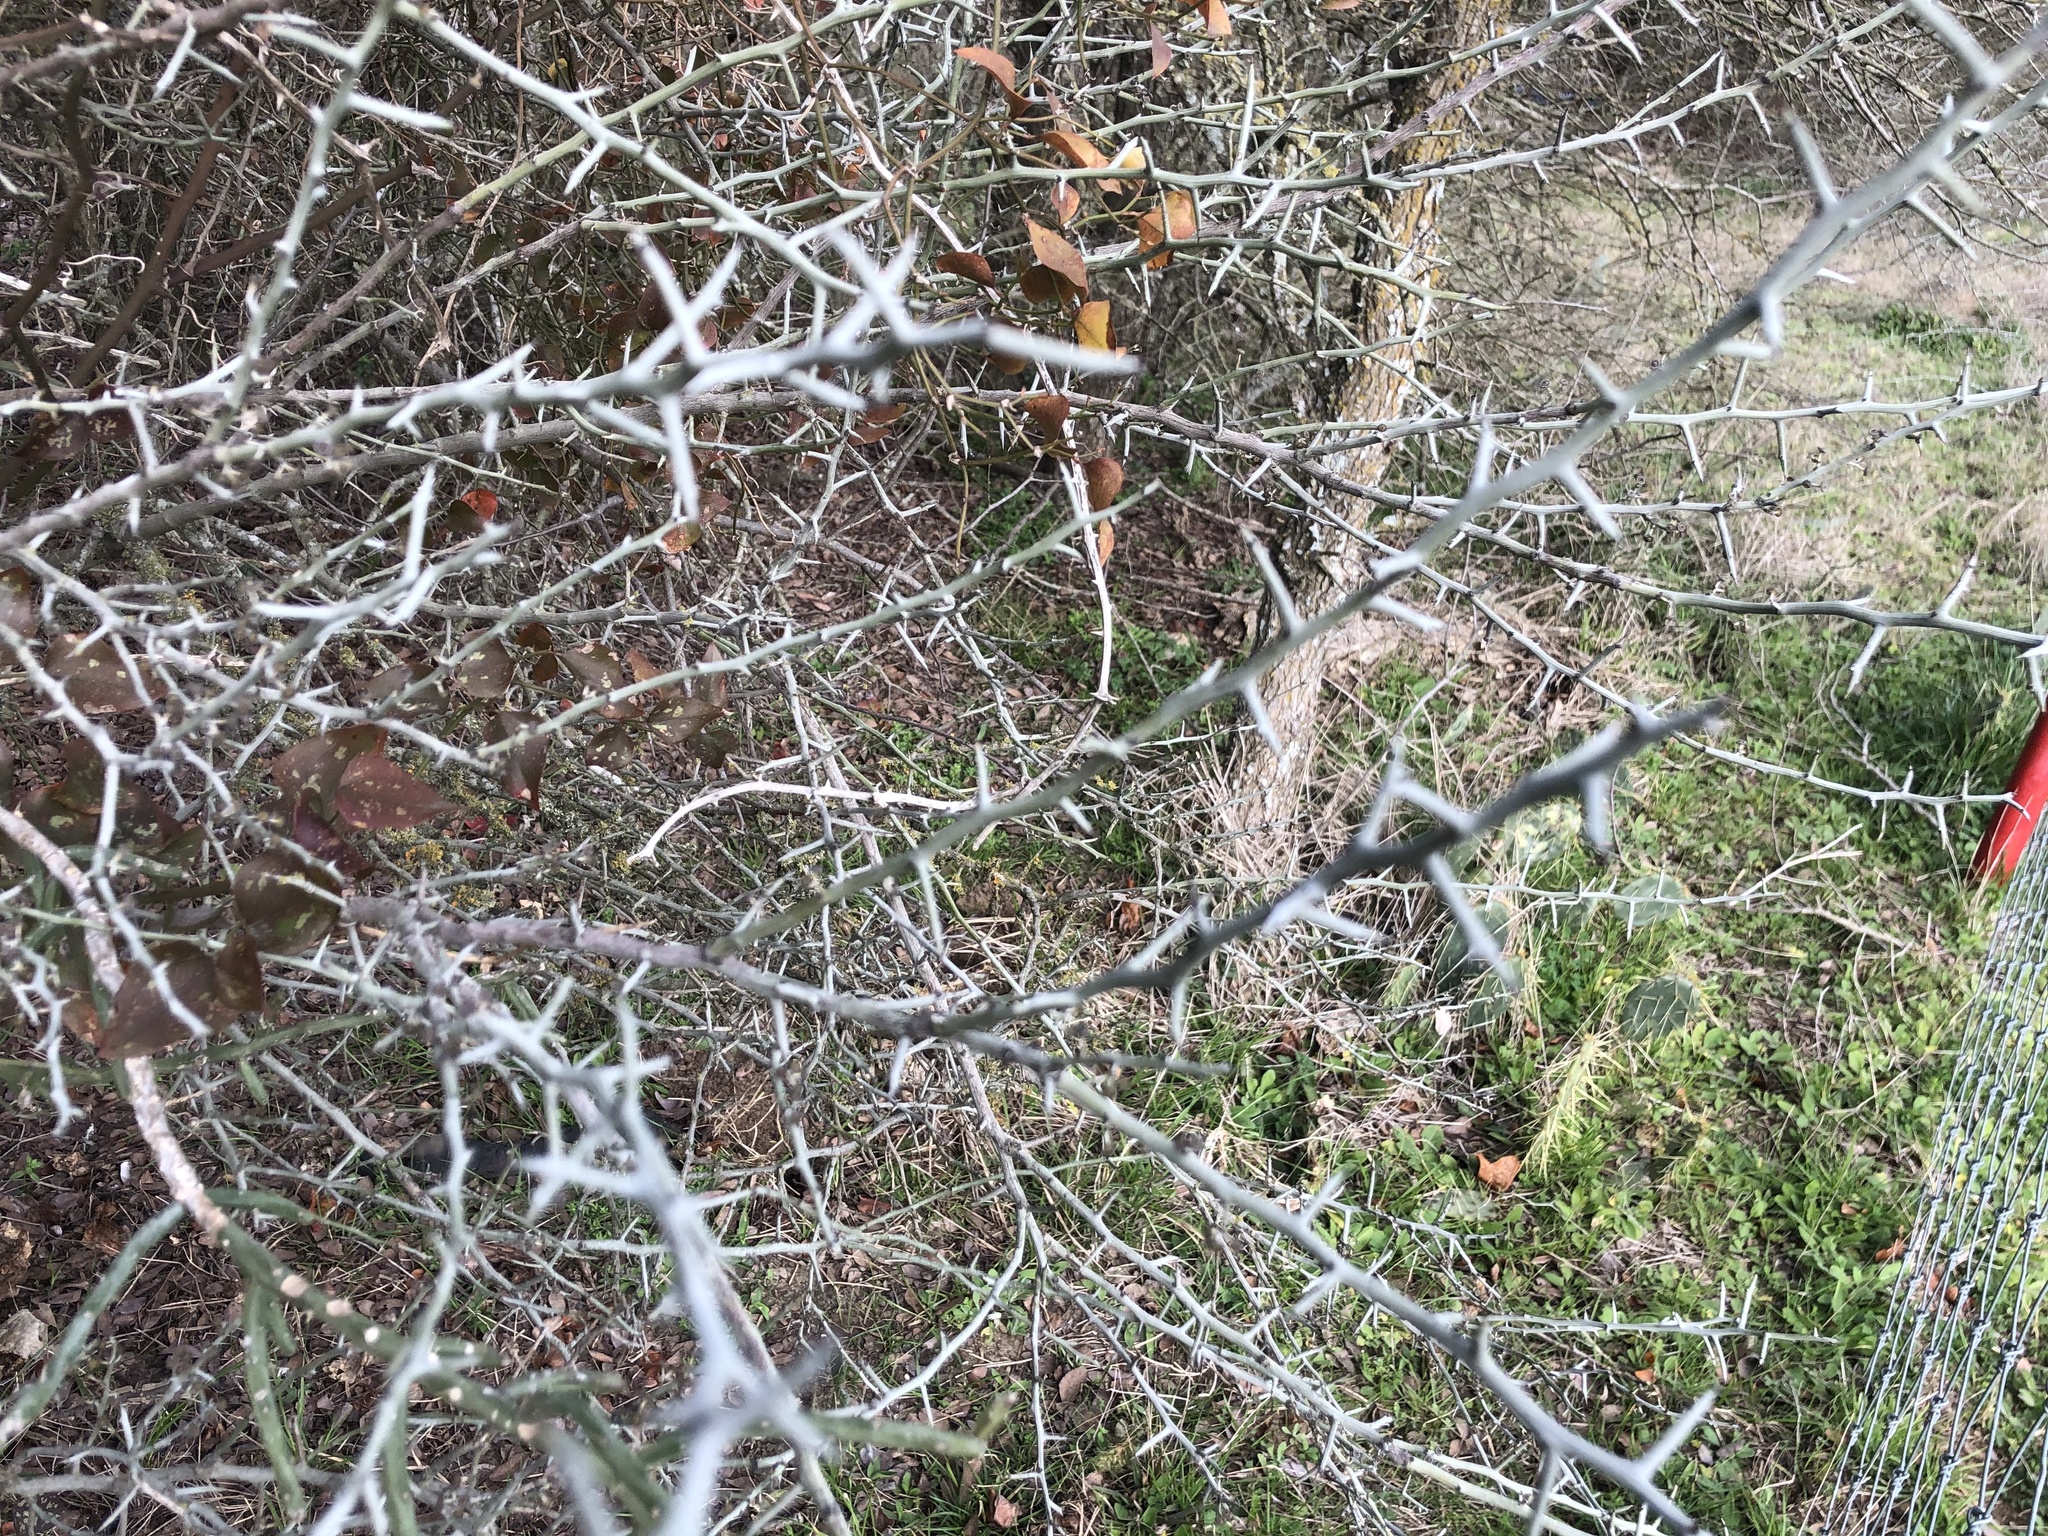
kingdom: Plantae
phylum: Tracheophyta
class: Magnoliopsida
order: Rosales
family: Rhamnaceae
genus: Sarcomphalus
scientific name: Sarcomphalus obtusifolius
